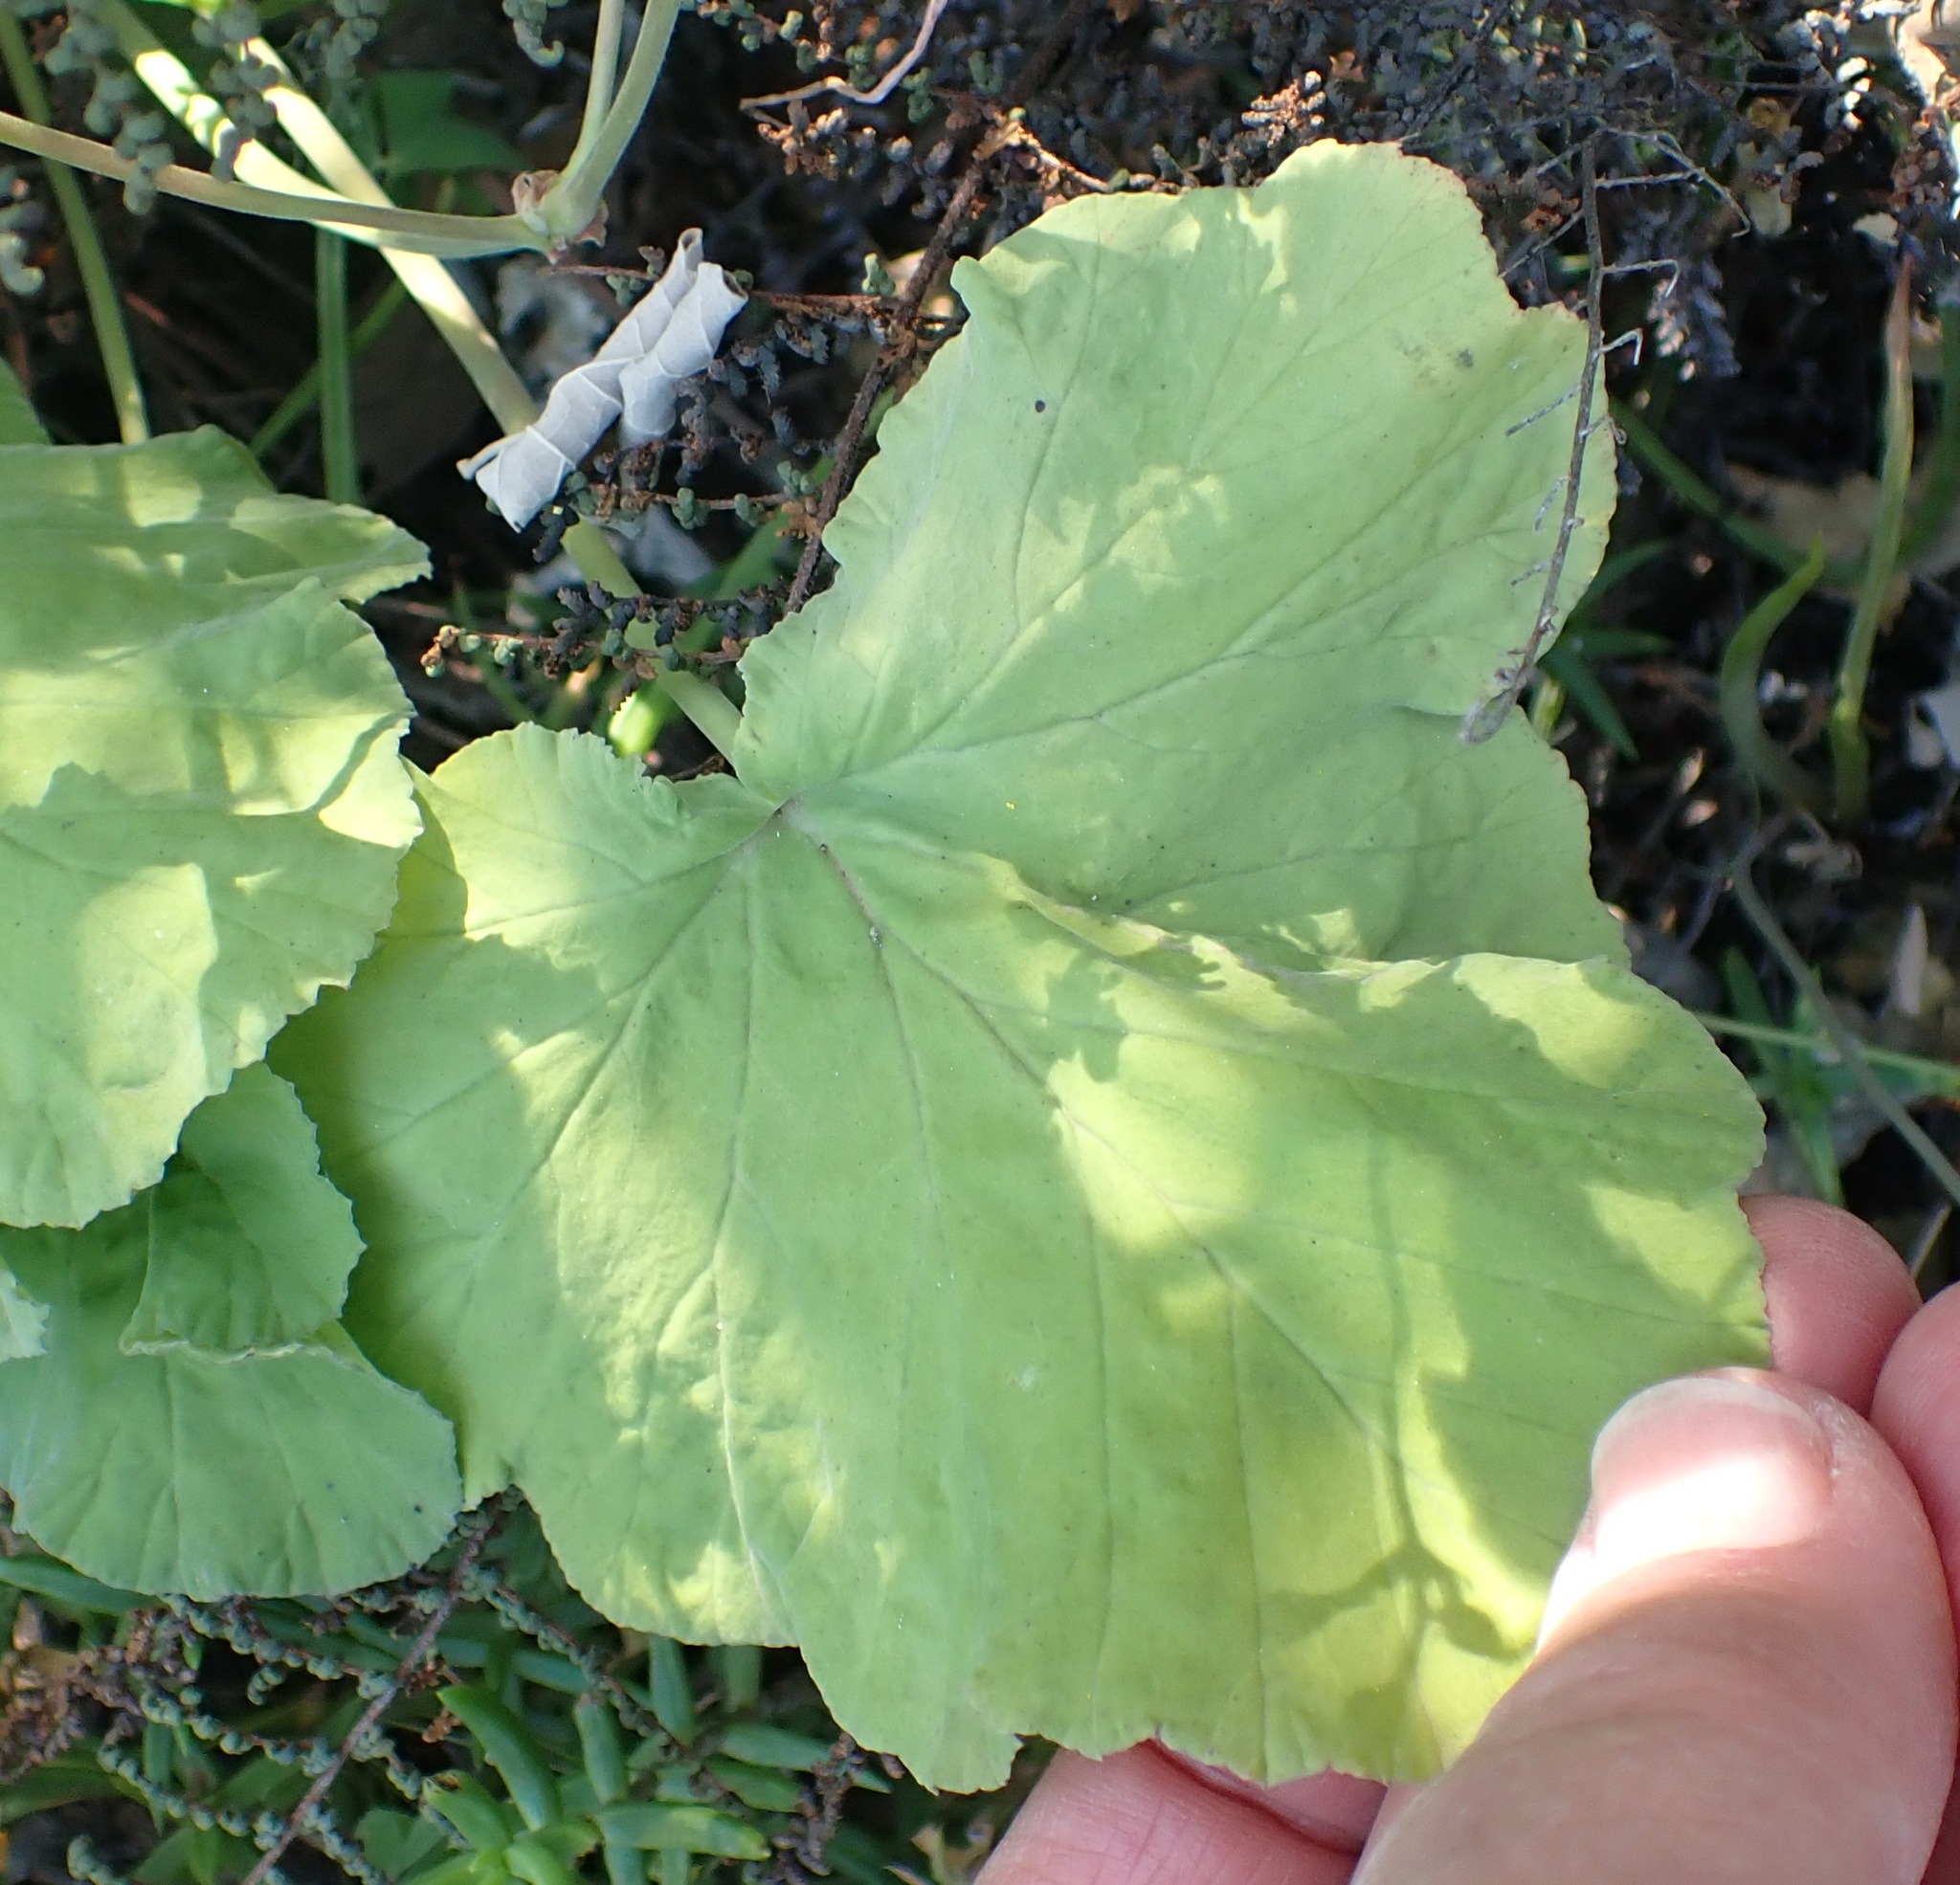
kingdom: Plantae
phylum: Tracheophyta
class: Magnoliopsida
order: Geraniales
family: Geraniaceae
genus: Pelargonium
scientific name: Pelargonium odoratissimum
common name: Apple geranium
